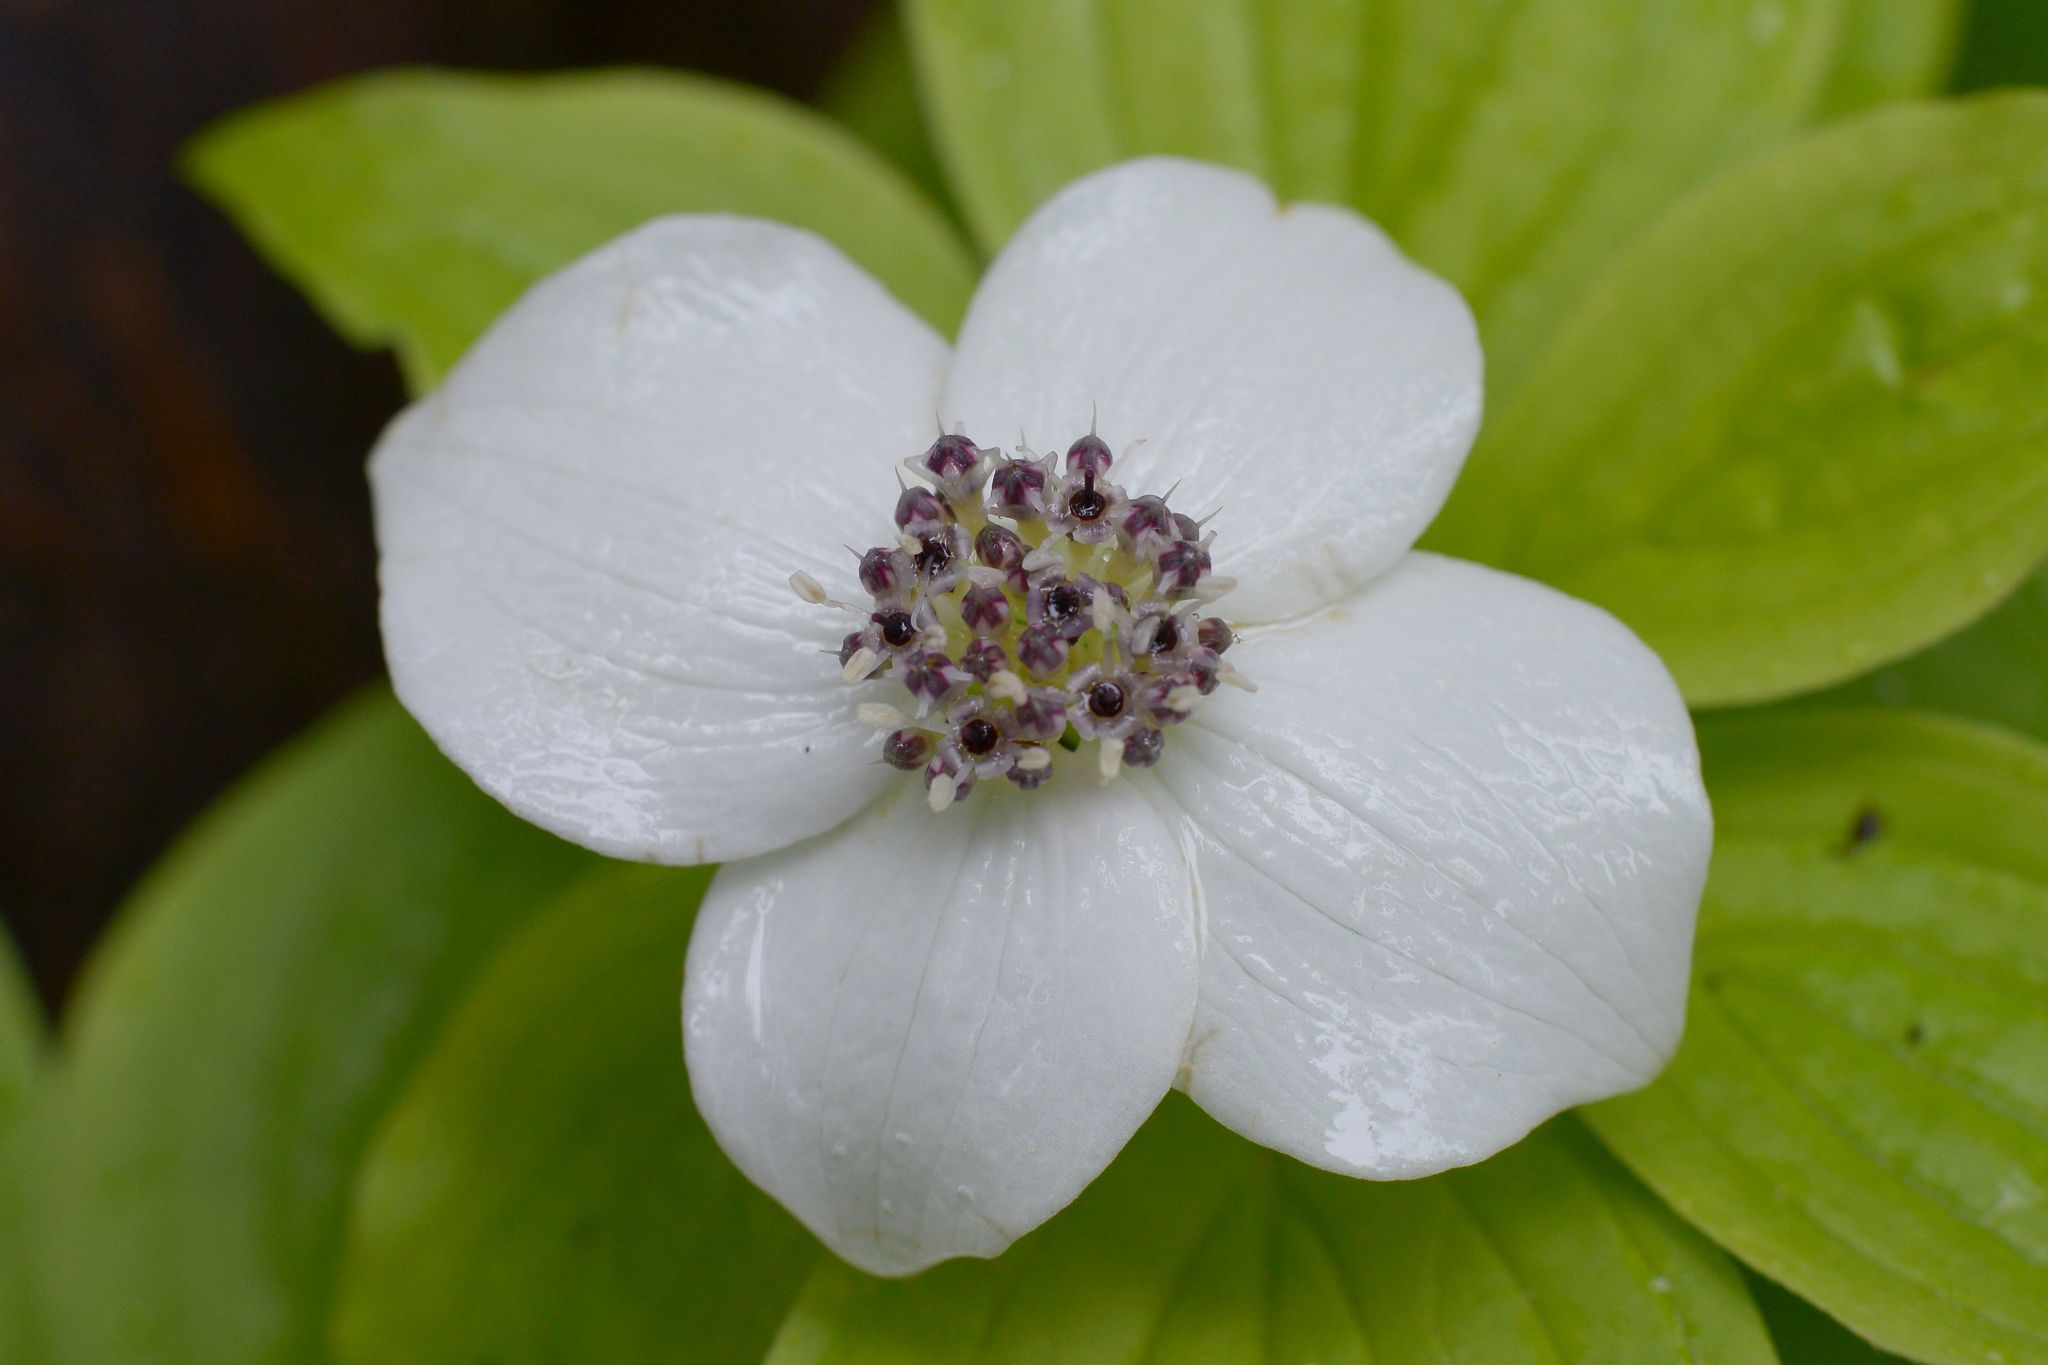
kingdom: Plantae
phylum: Tracheophyta
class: Magnoliopsida
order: Cornales
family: Cornaceae
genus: Cornus
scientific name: Cornus unalaschkensis
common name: Alaska bunchberry
